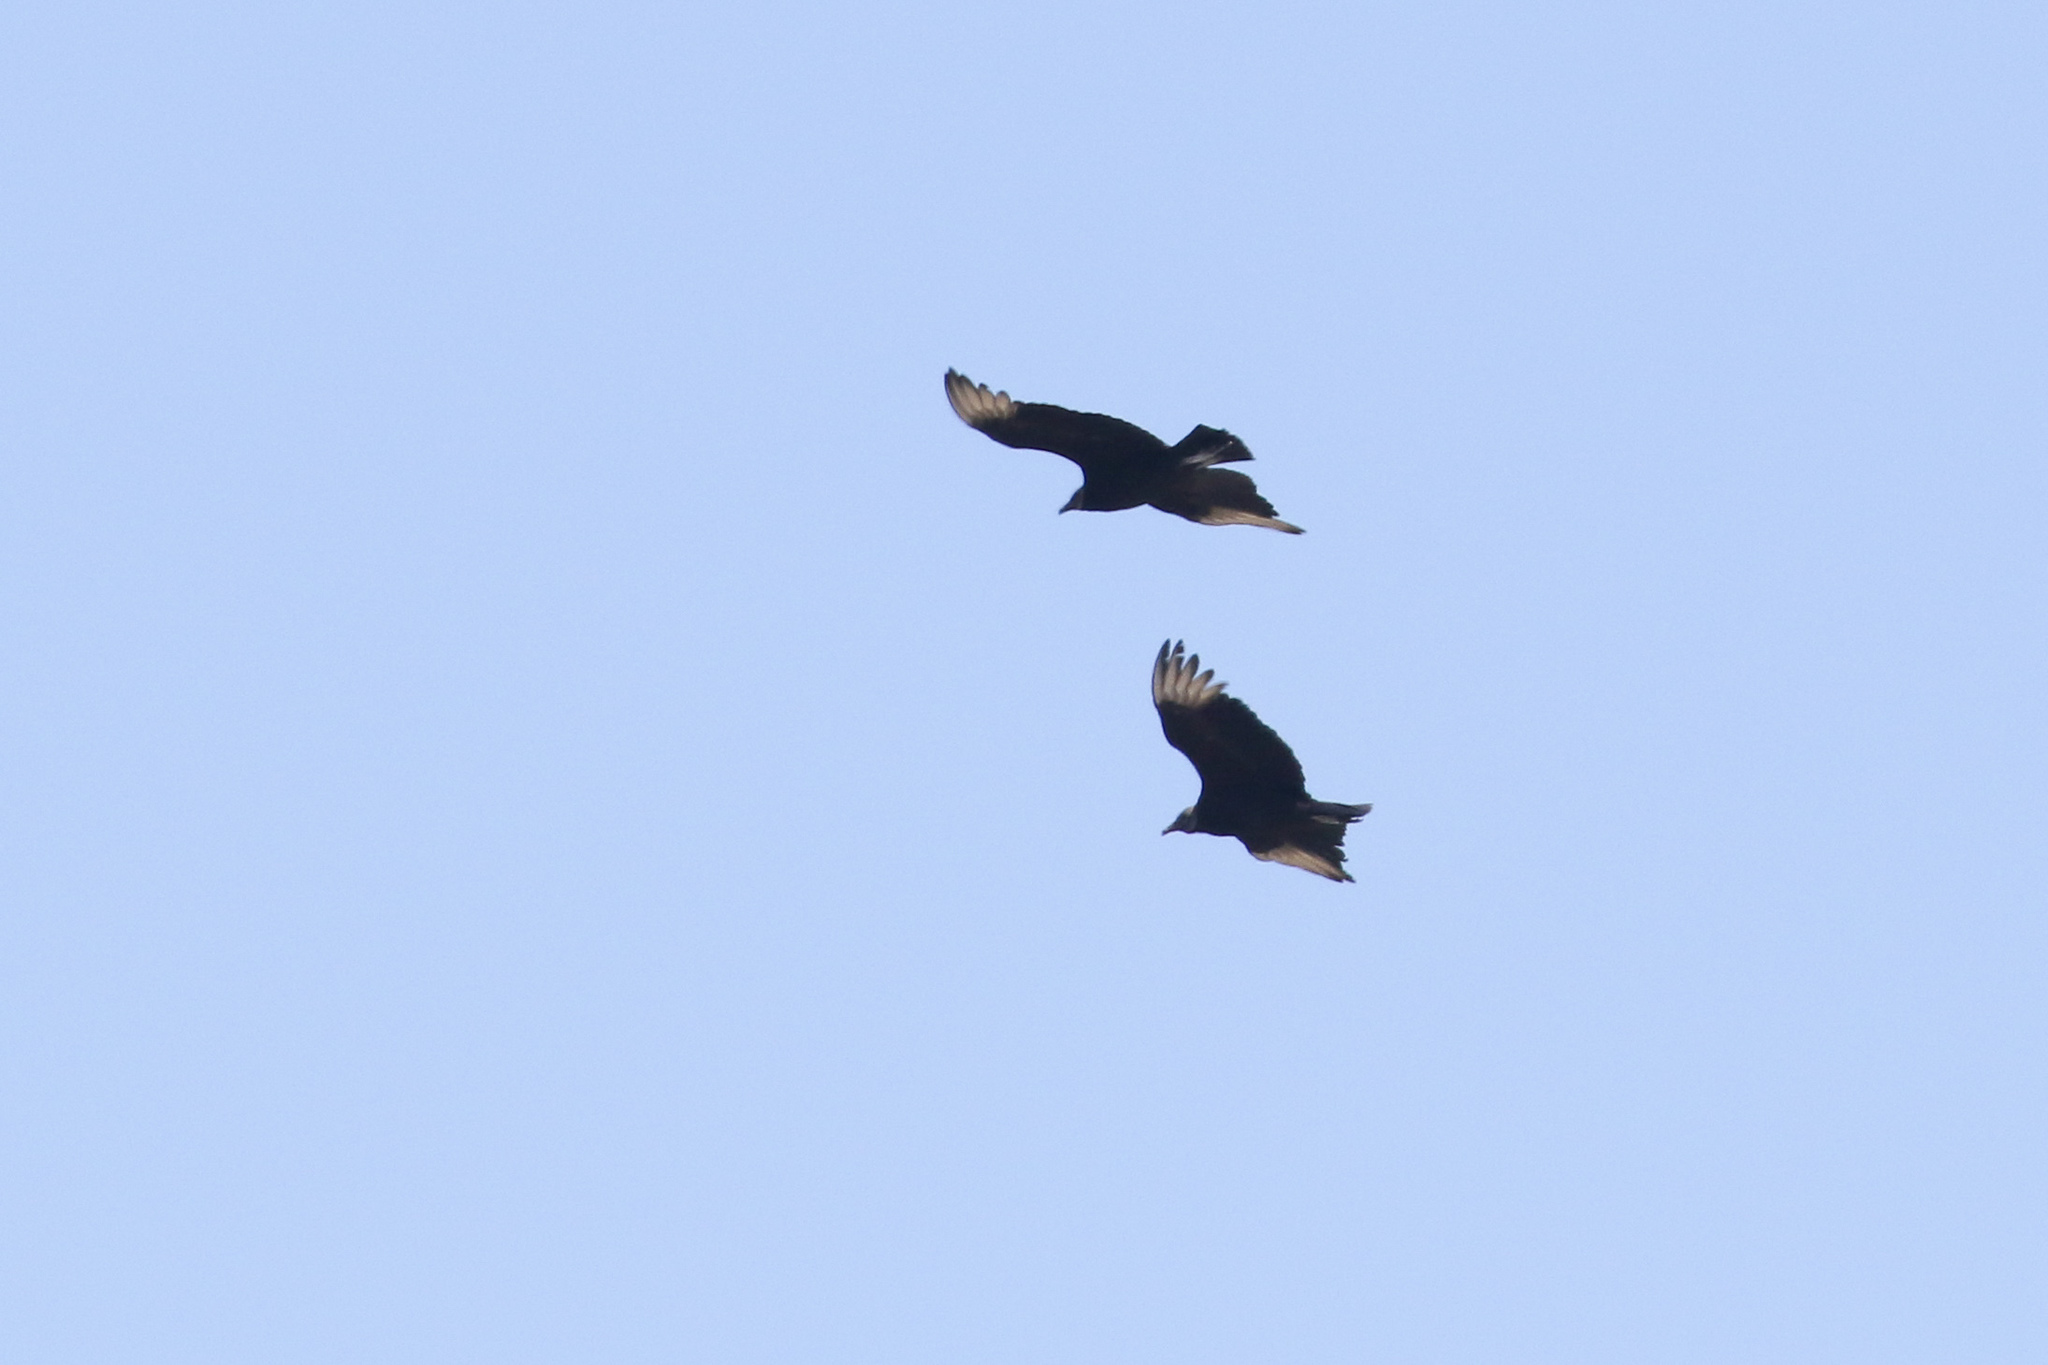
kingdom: Animalia
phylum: Chordata
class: Aves
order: Accipitriformes
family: Cathartidae
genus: Coragyps
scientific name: Coragyps atratus
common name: Black vulture
